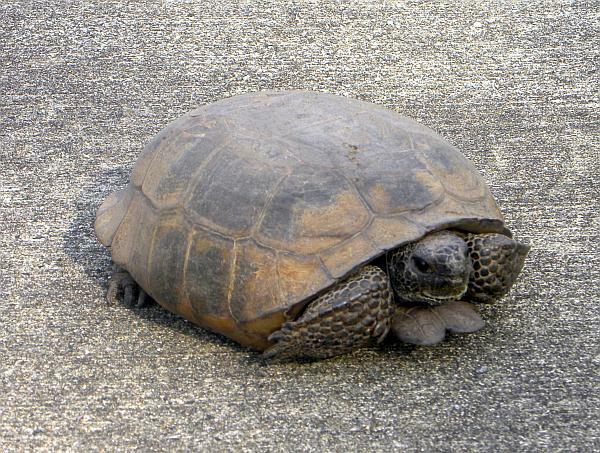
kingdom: Animalia
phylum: Chordata
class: Testudines
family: Testudinidae
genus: Gopherus
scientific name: Gopherus polyphemus
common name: Florida gopher tortoise
